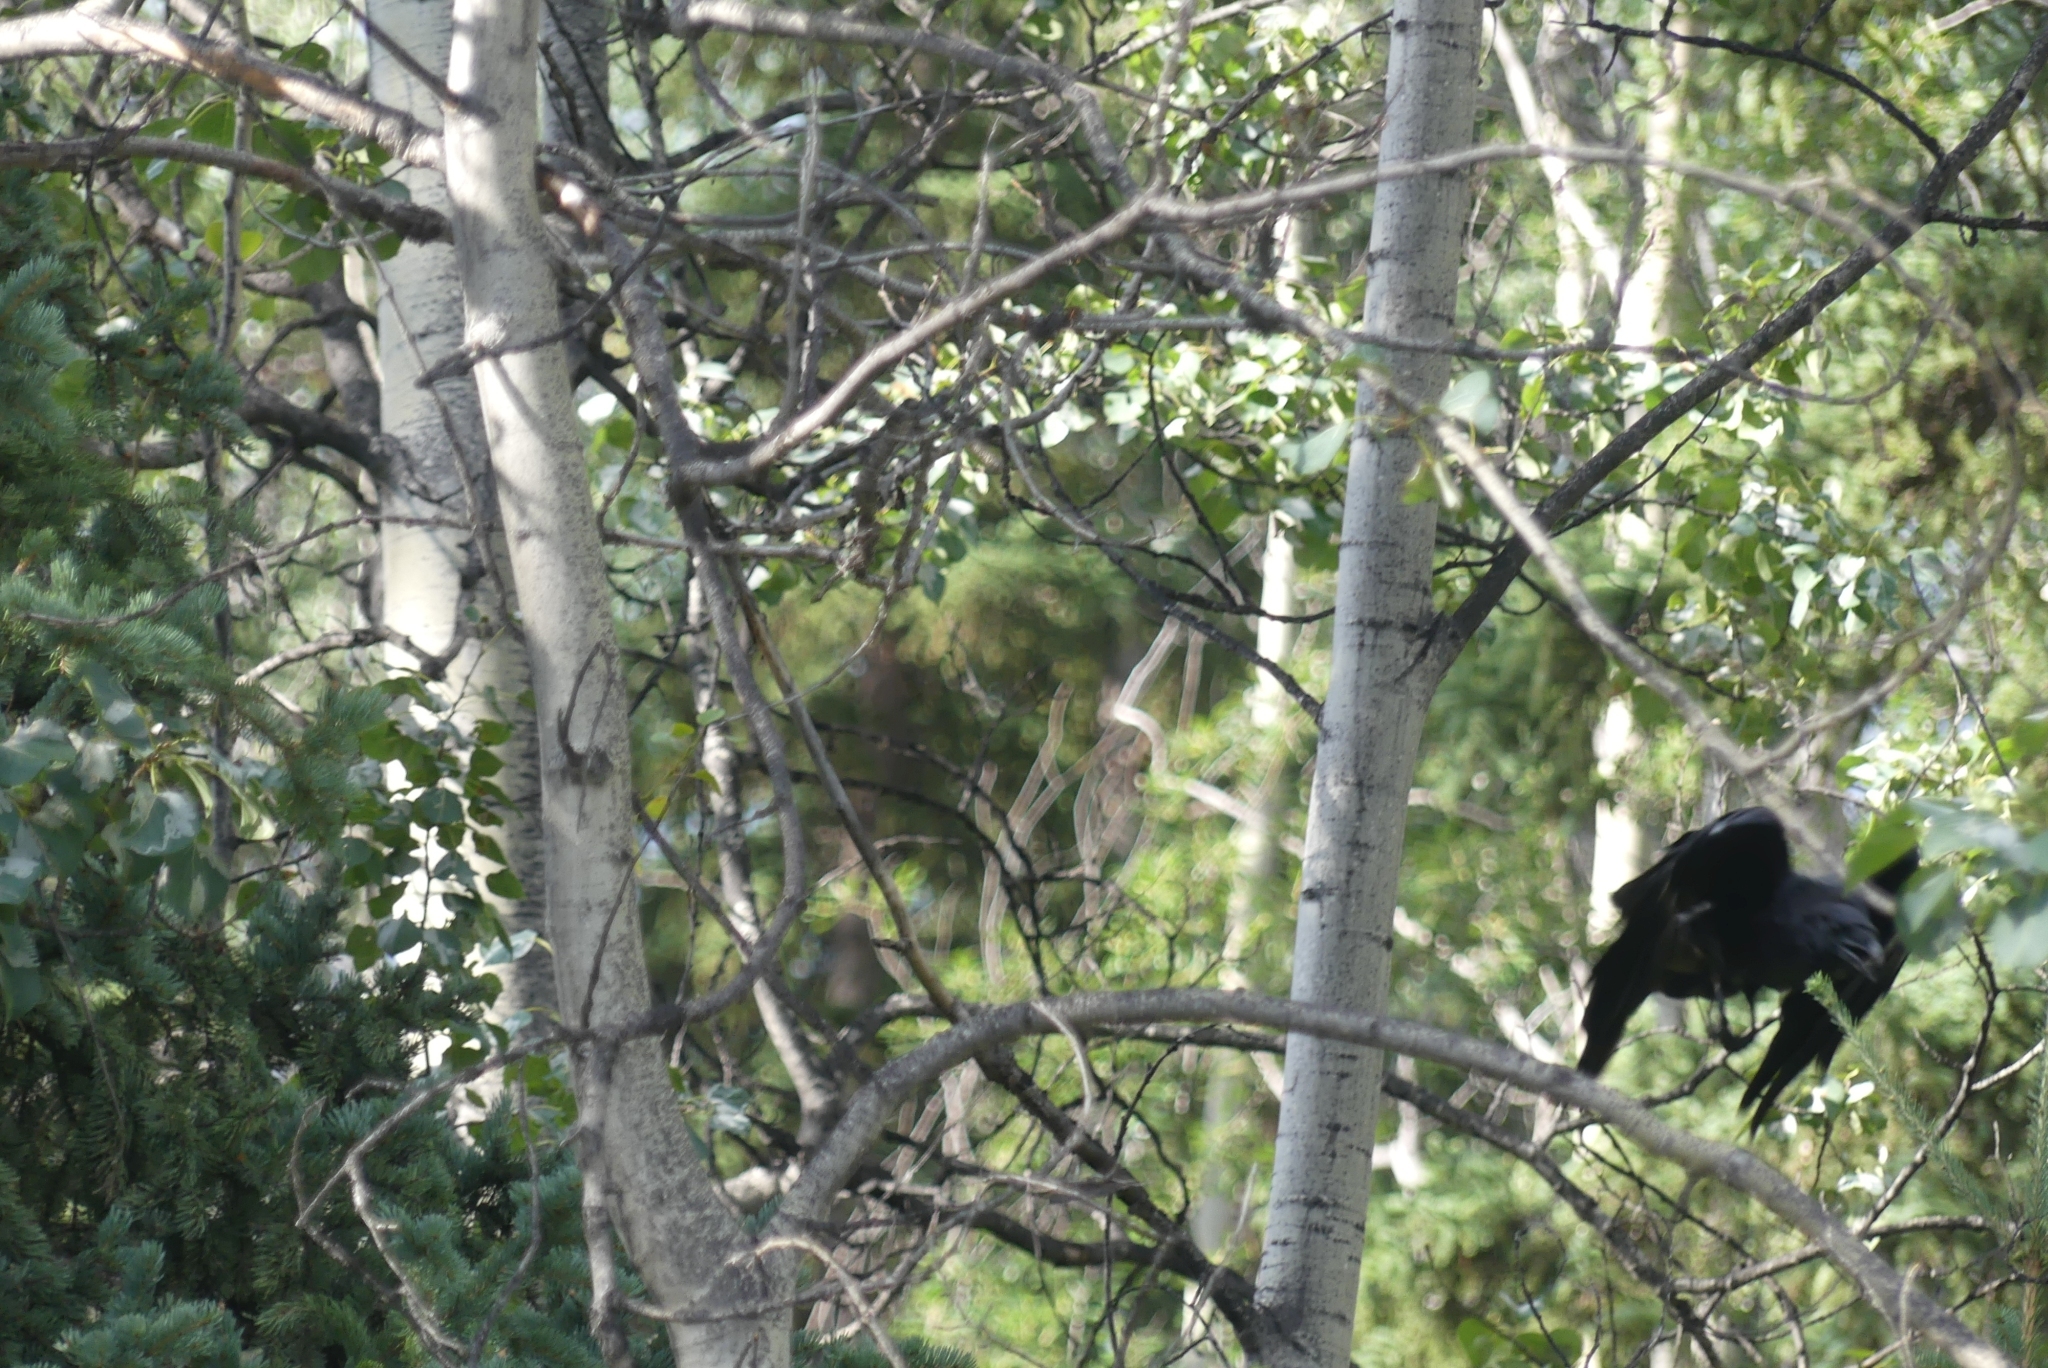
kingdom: Animalia
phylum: Chordata
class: Aves
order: Passeriformes
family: Corvidae
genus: Corvus
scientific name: Corvus corax
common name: Common raven
